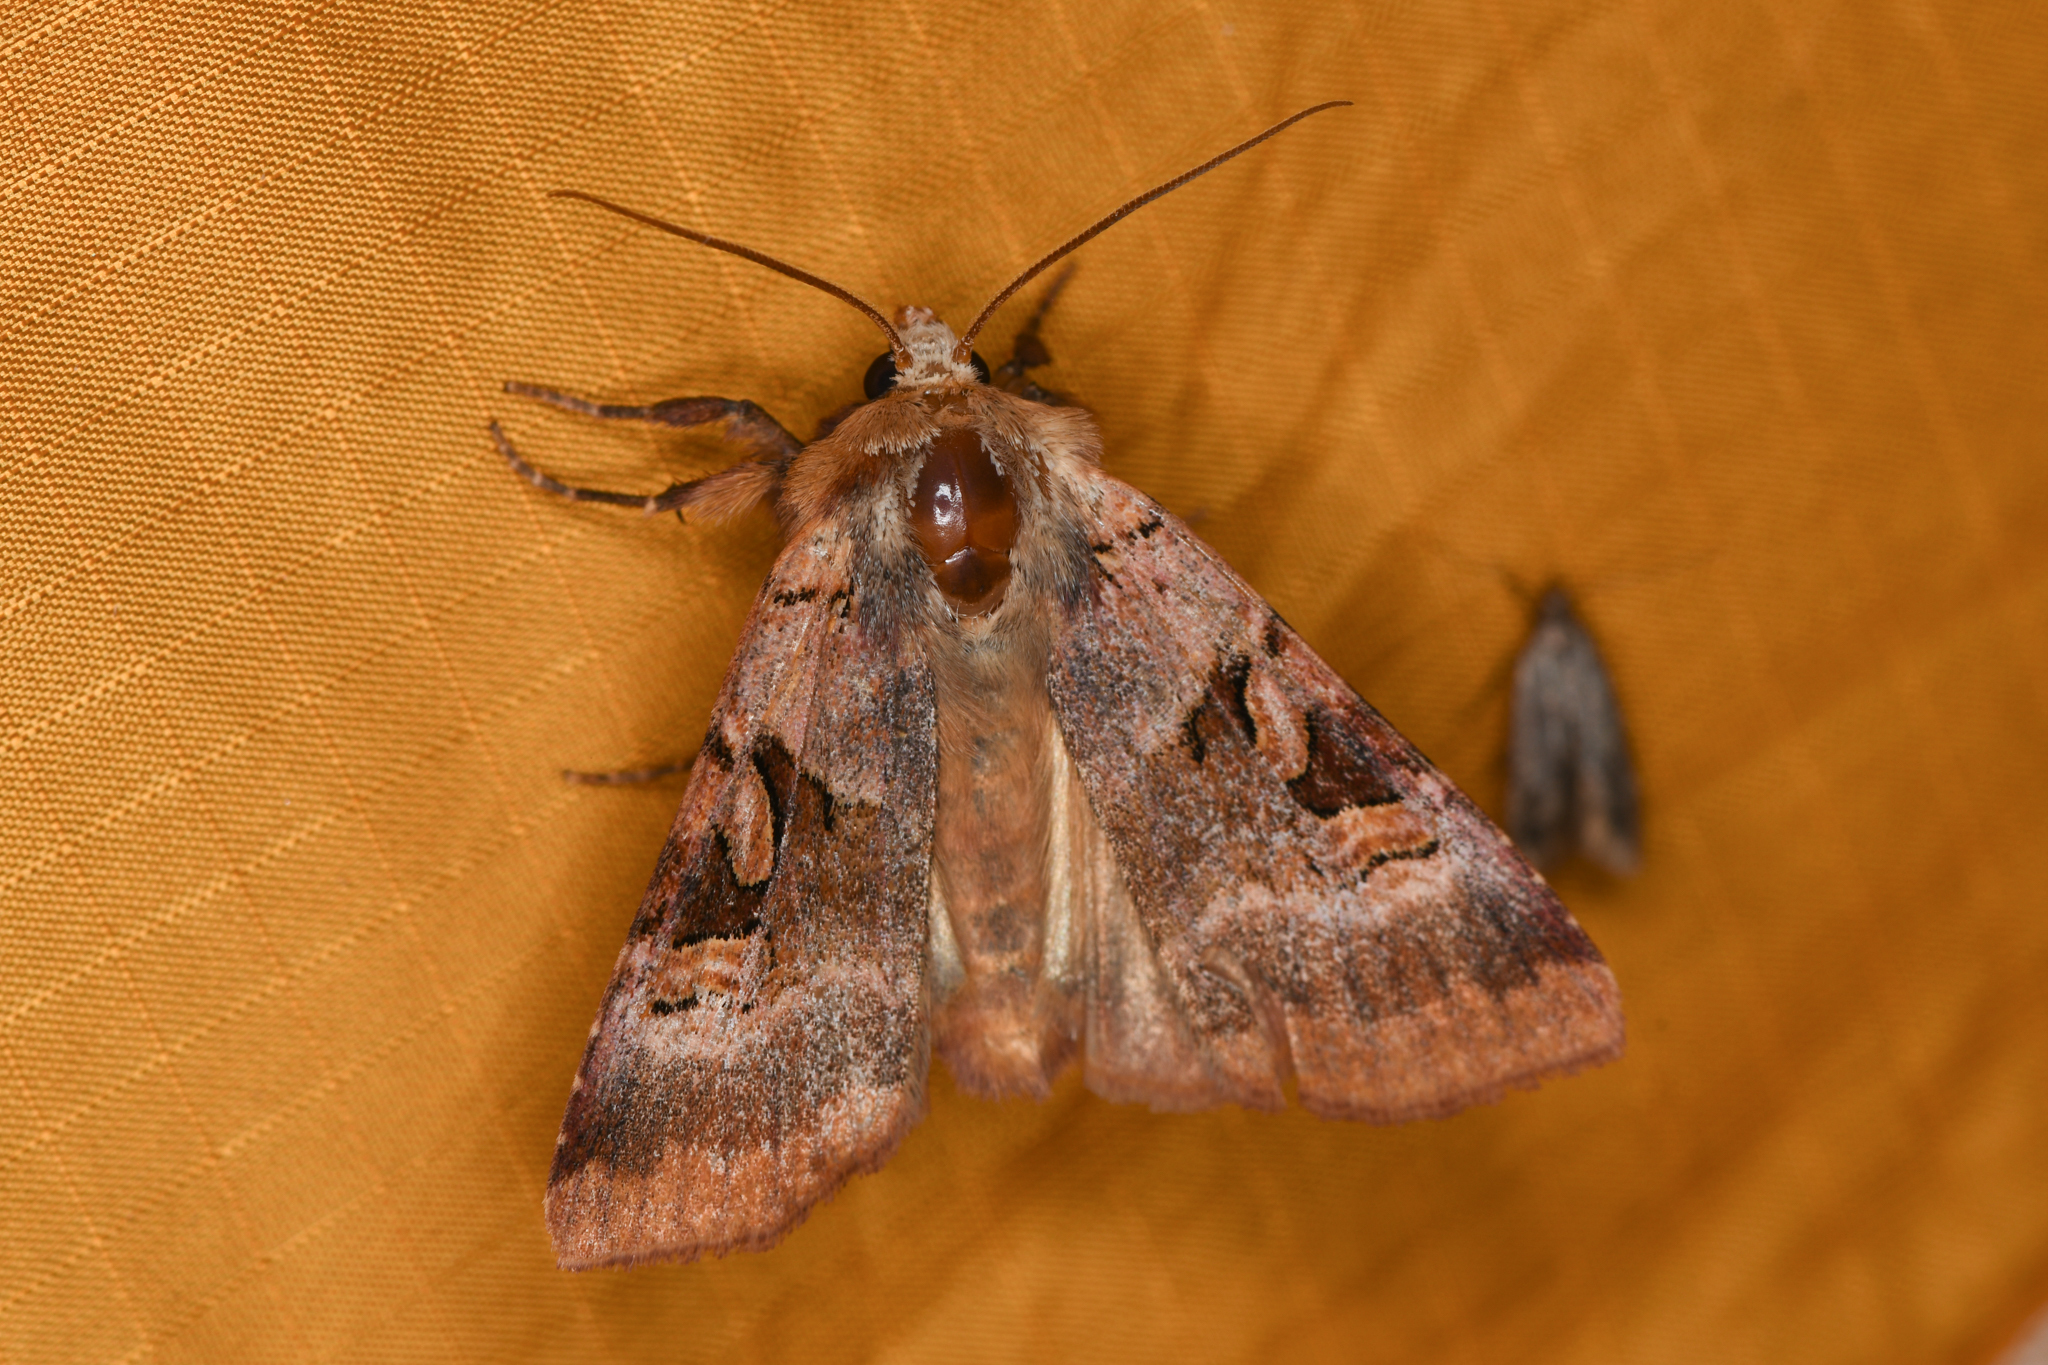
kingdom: Animalia
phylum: Arthropoda
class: Insecta
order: Lepidoptera
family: Noctuidae
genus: Xestia
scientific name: Xestia oblata
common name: Rosy dart
